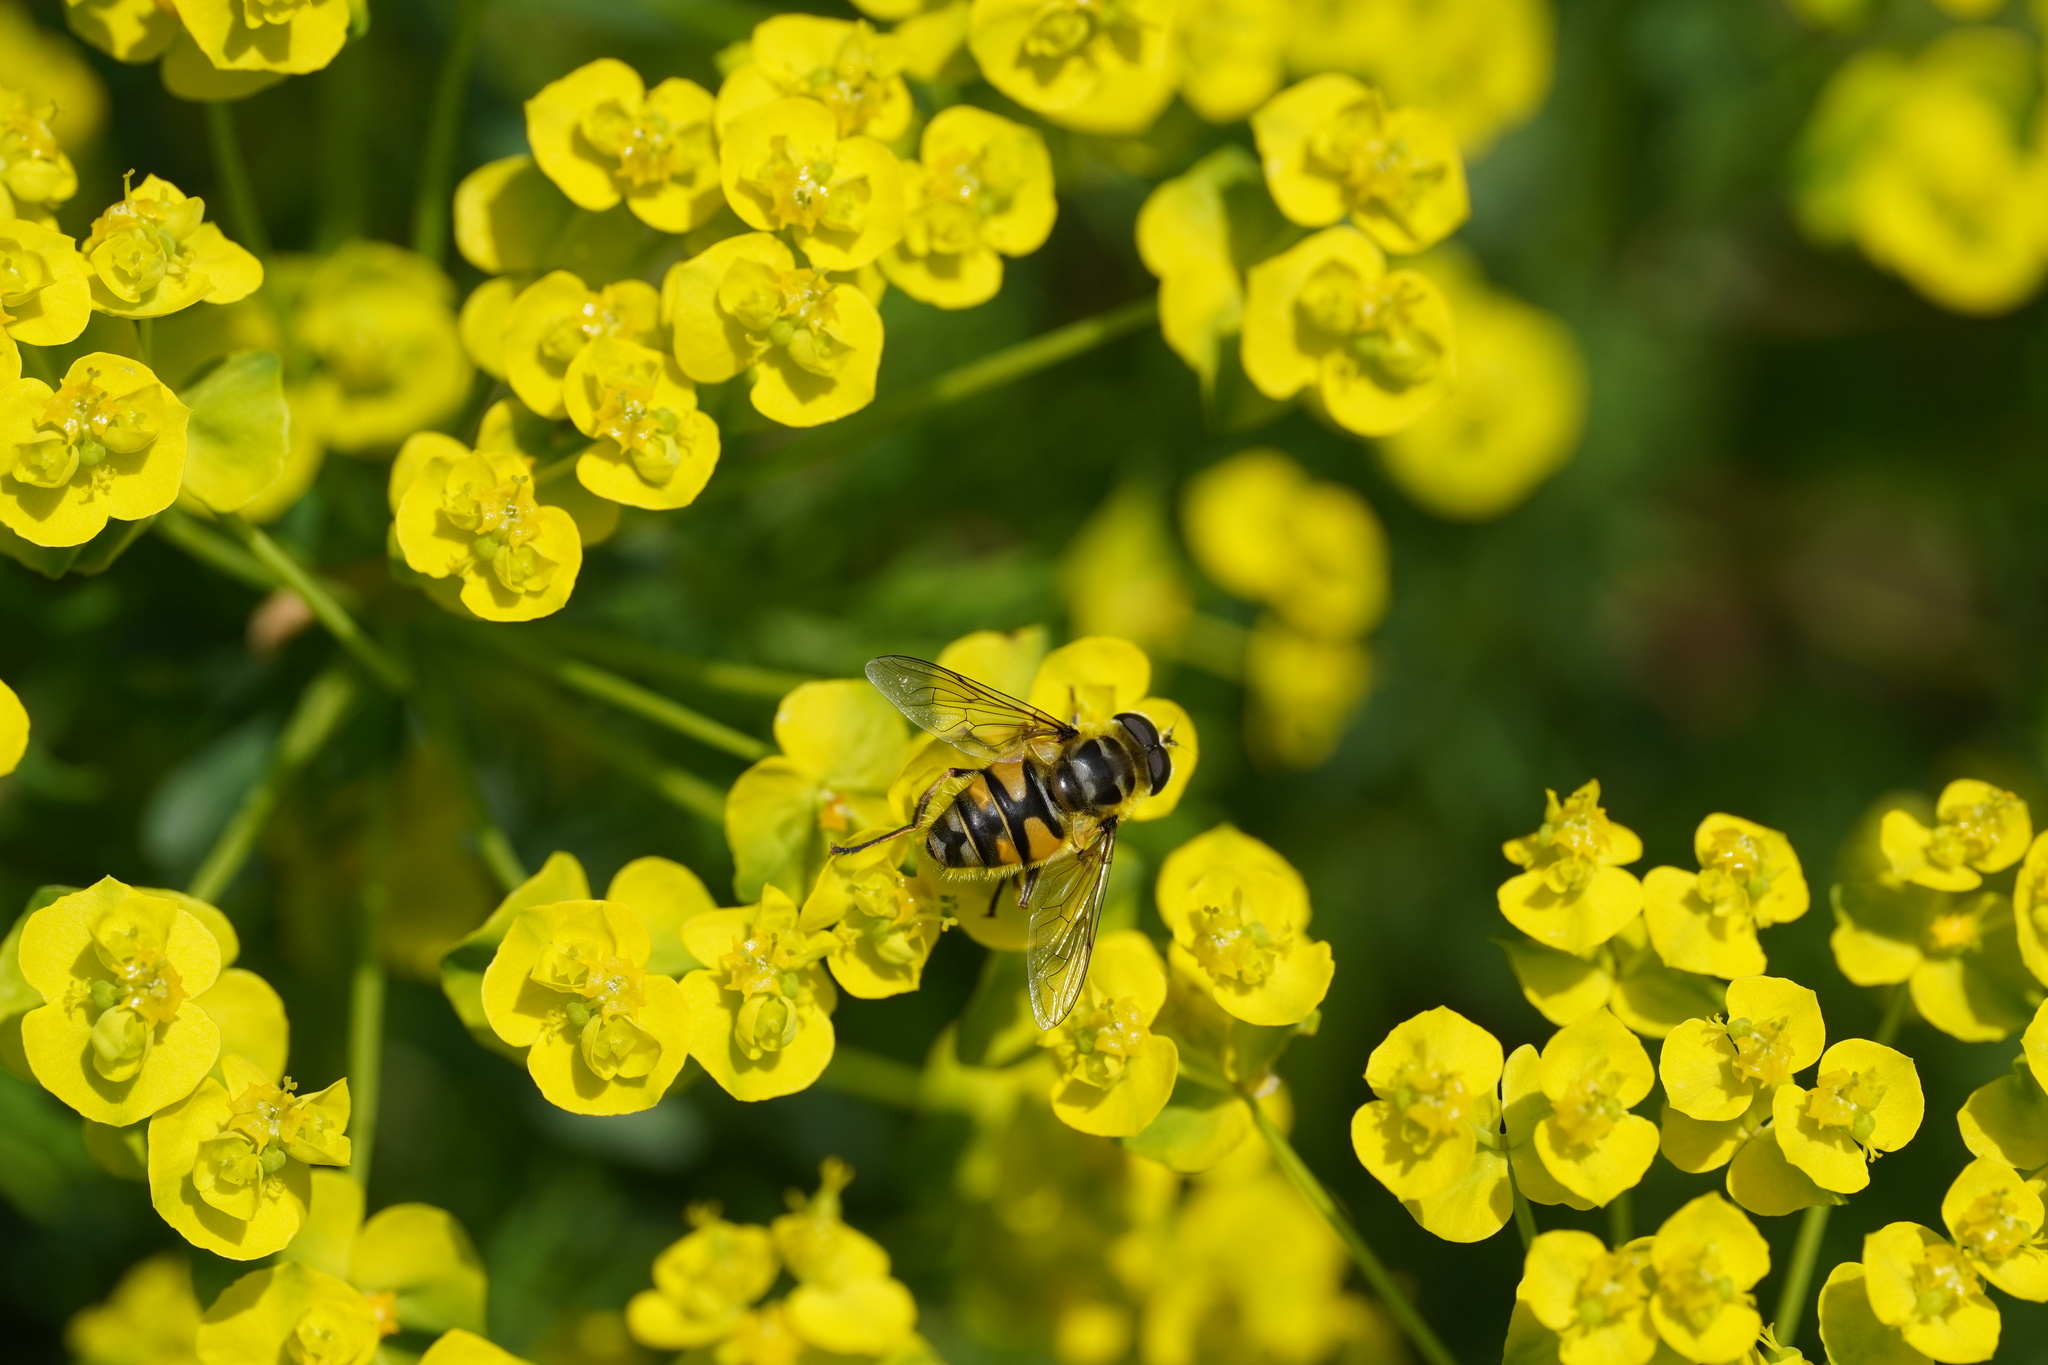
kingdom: Animalia
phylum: Arthropoda
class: Insecta
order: Diptera
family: Syrphidae
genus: Myathropa
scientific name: Myathropa florea
